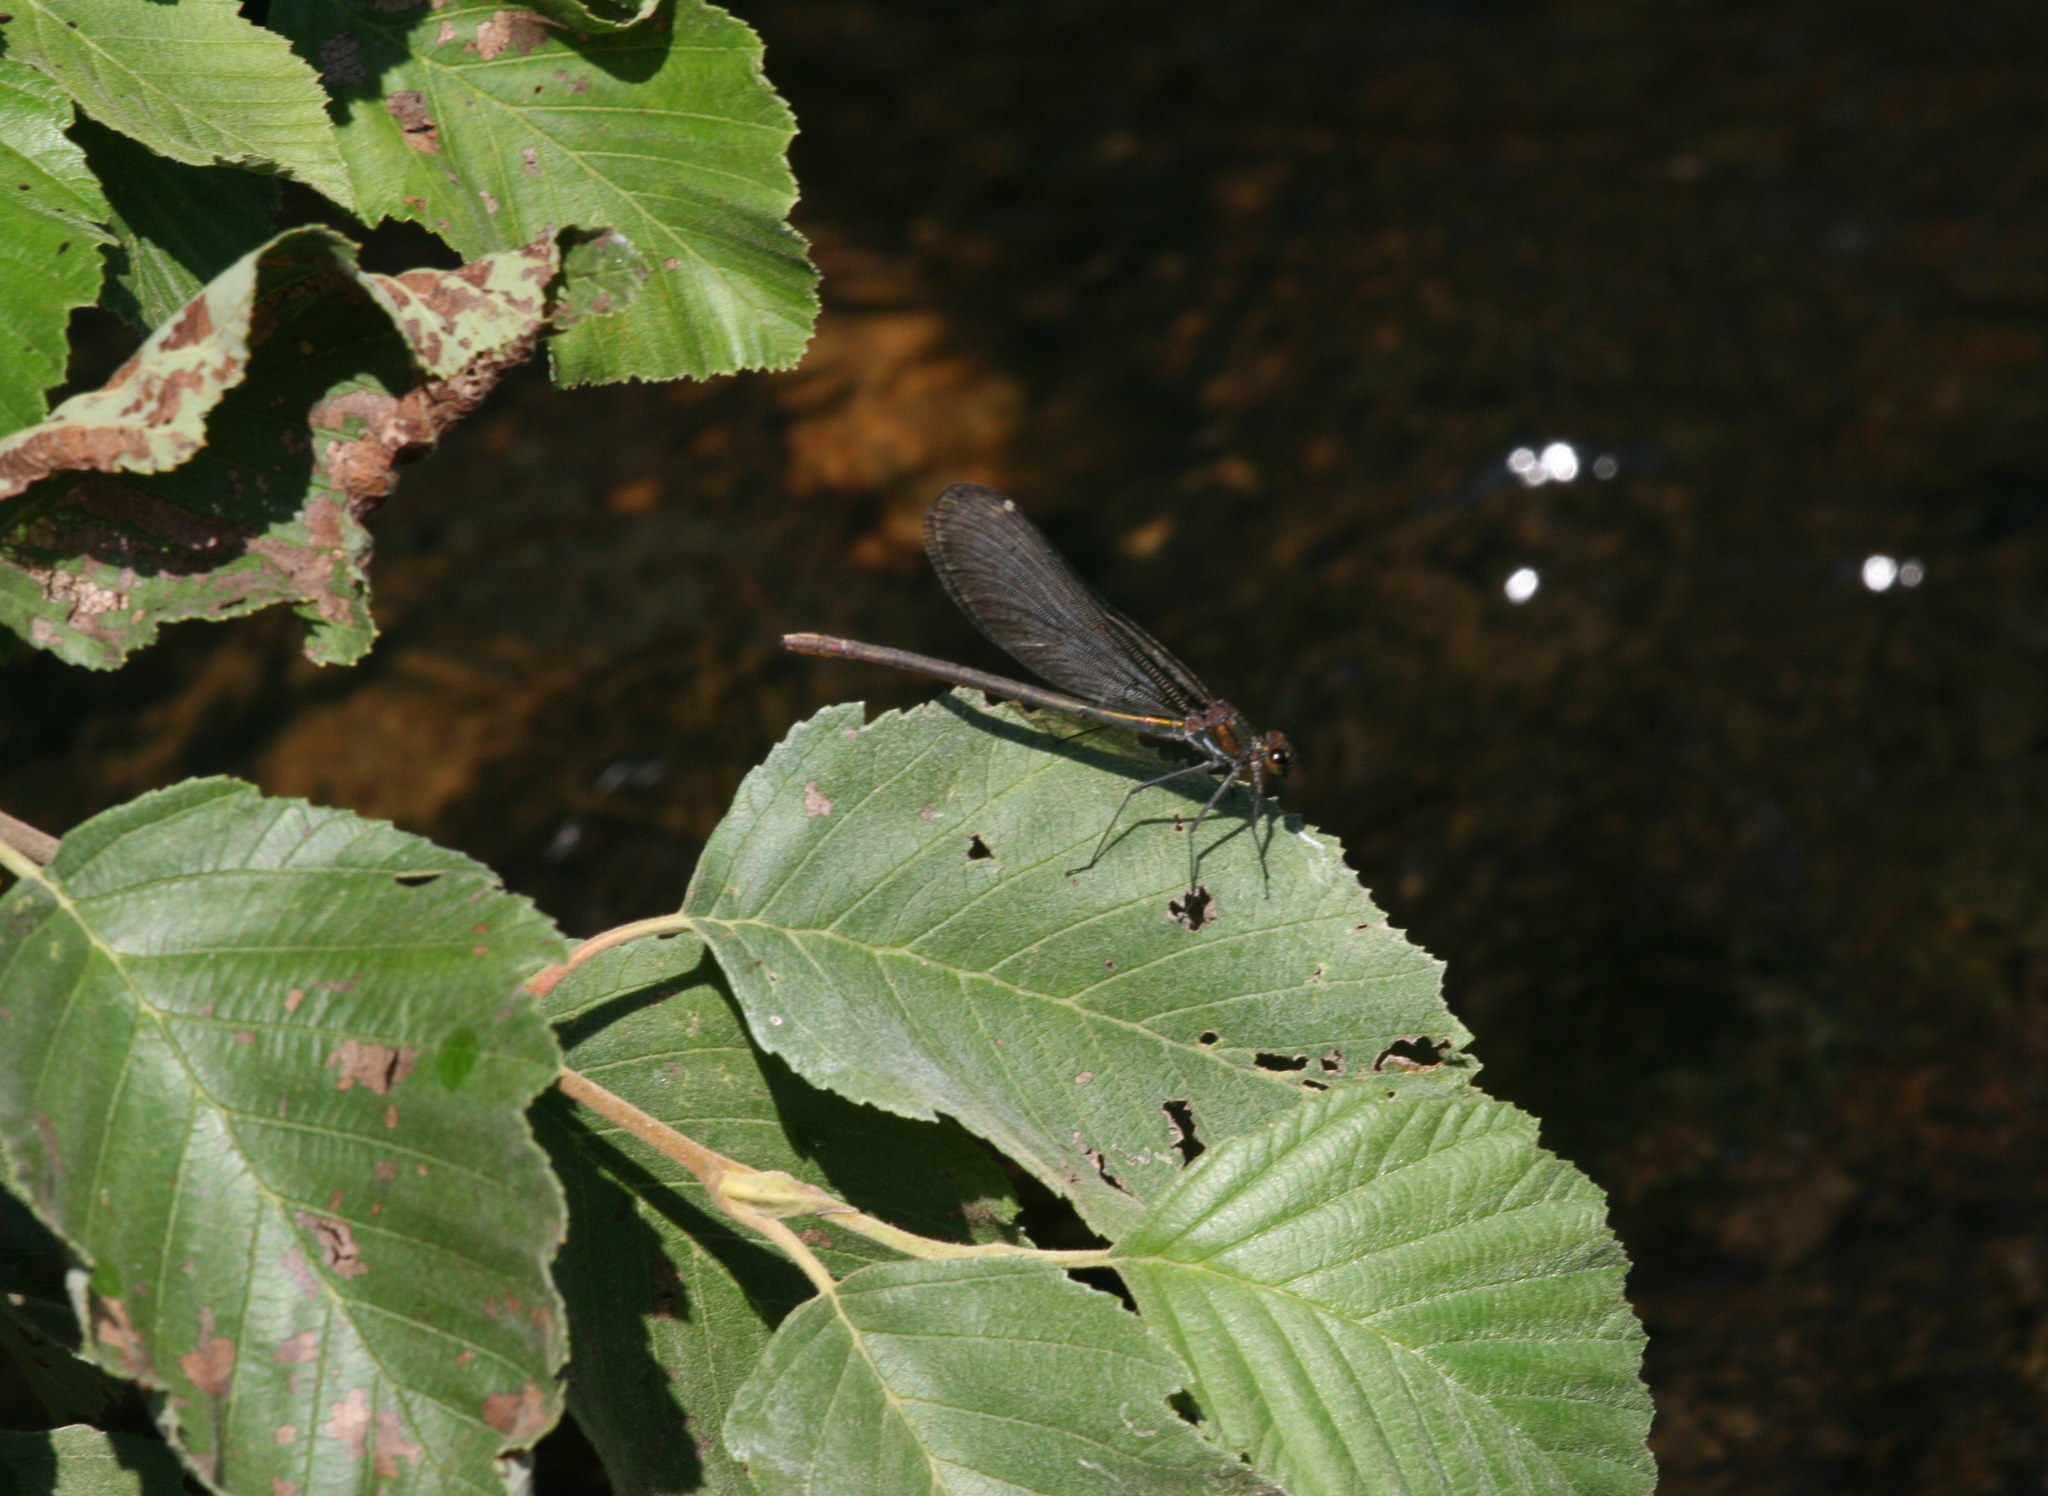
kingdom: Plantae
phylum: Tracheophyta
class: Magnoliopsida
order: Fagales
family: Betulaceae
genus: Alnus
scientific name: Alnus incana
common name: Grey alder
